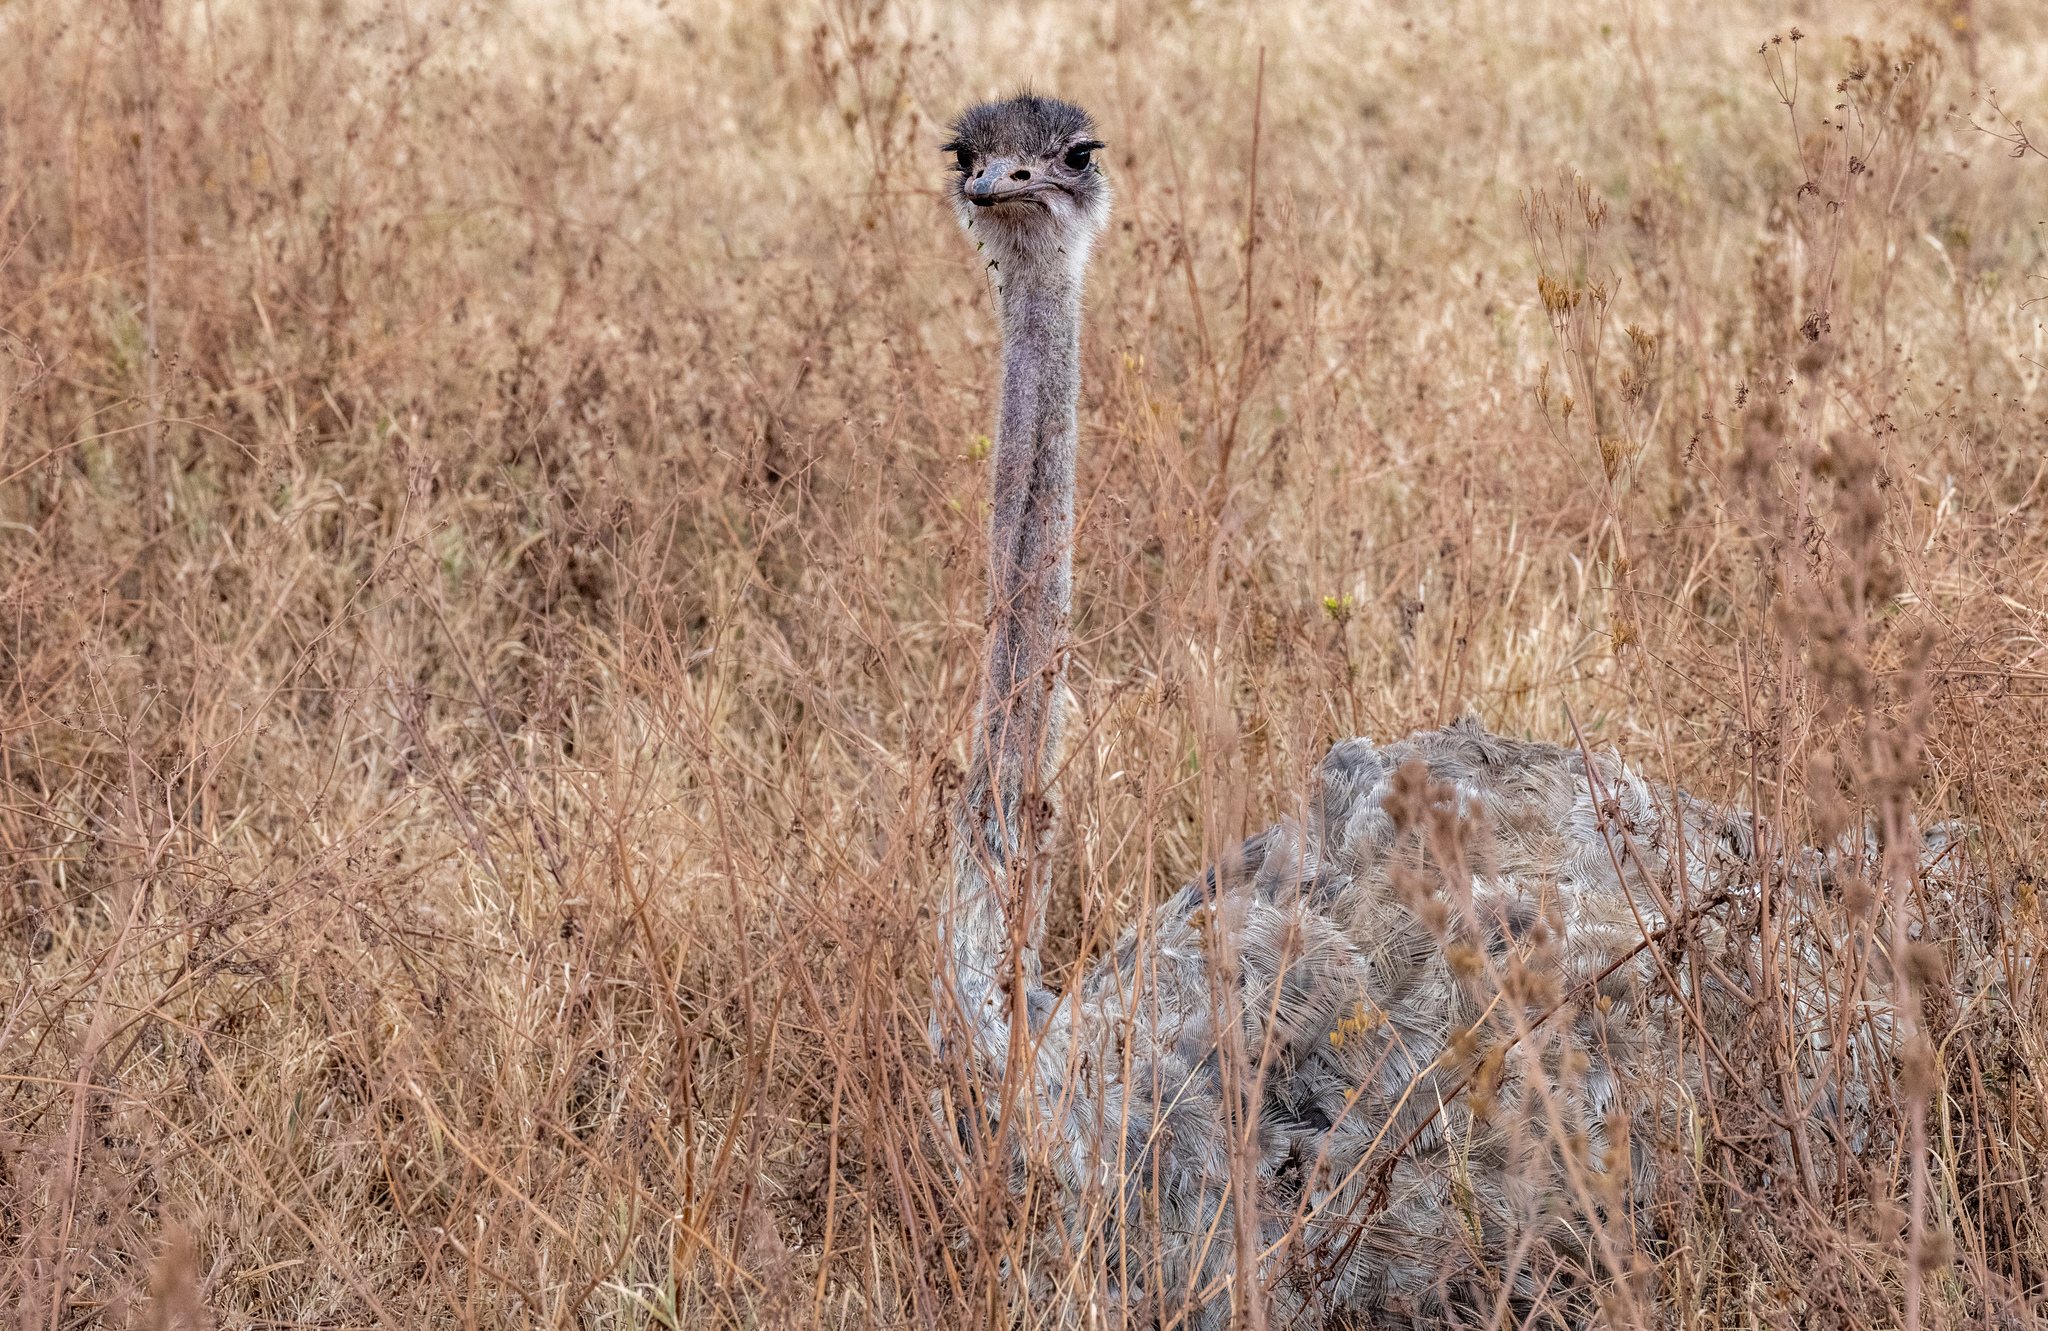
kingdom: Animalia
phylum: Chordata
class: Aves
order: Struthioniformes
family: Struthionidae
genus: Struthio
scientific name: Struthio camelus
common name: Common ostrich
